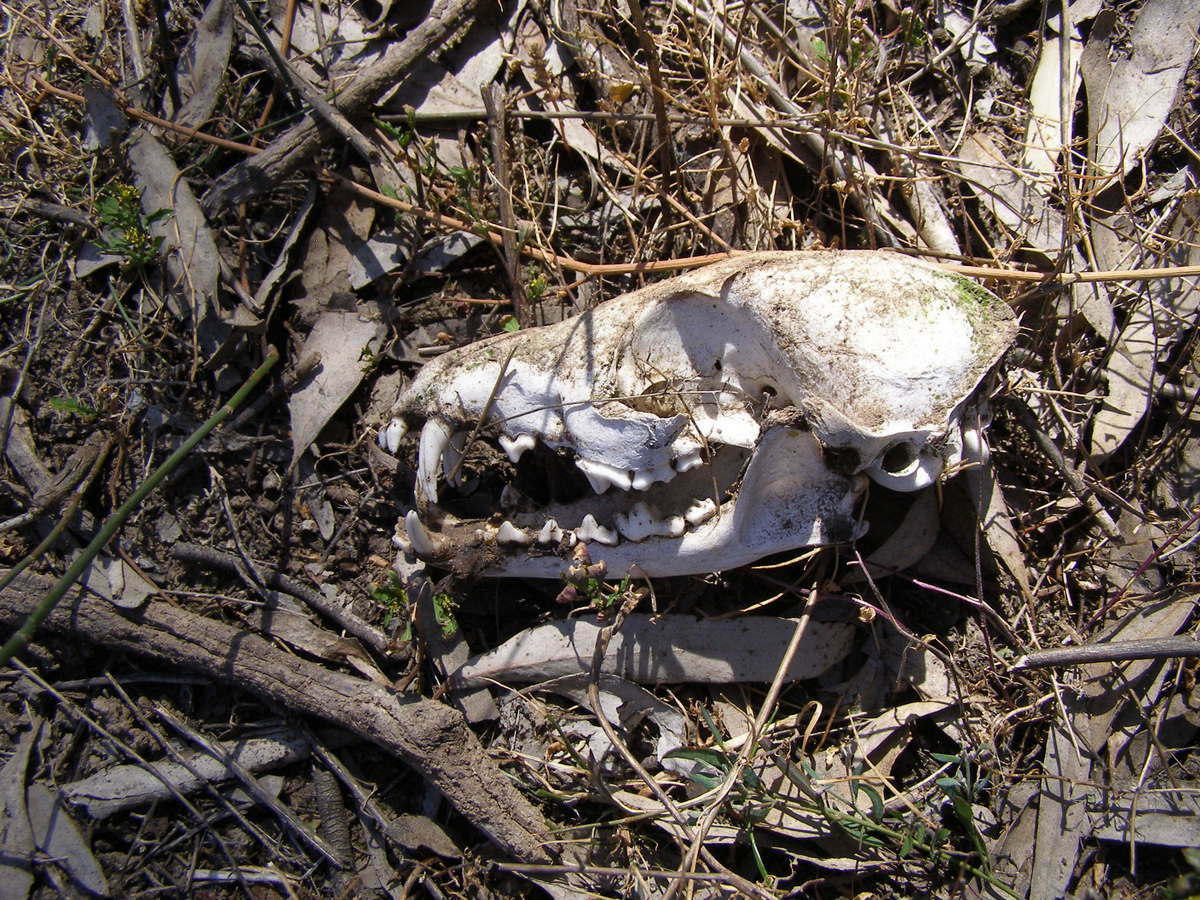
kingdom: Animalia
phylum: Chordata
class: Mammalia
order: Carnivora
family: Canidae
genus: Vulpes
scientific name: Vulpes vulpes
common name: Red fox
